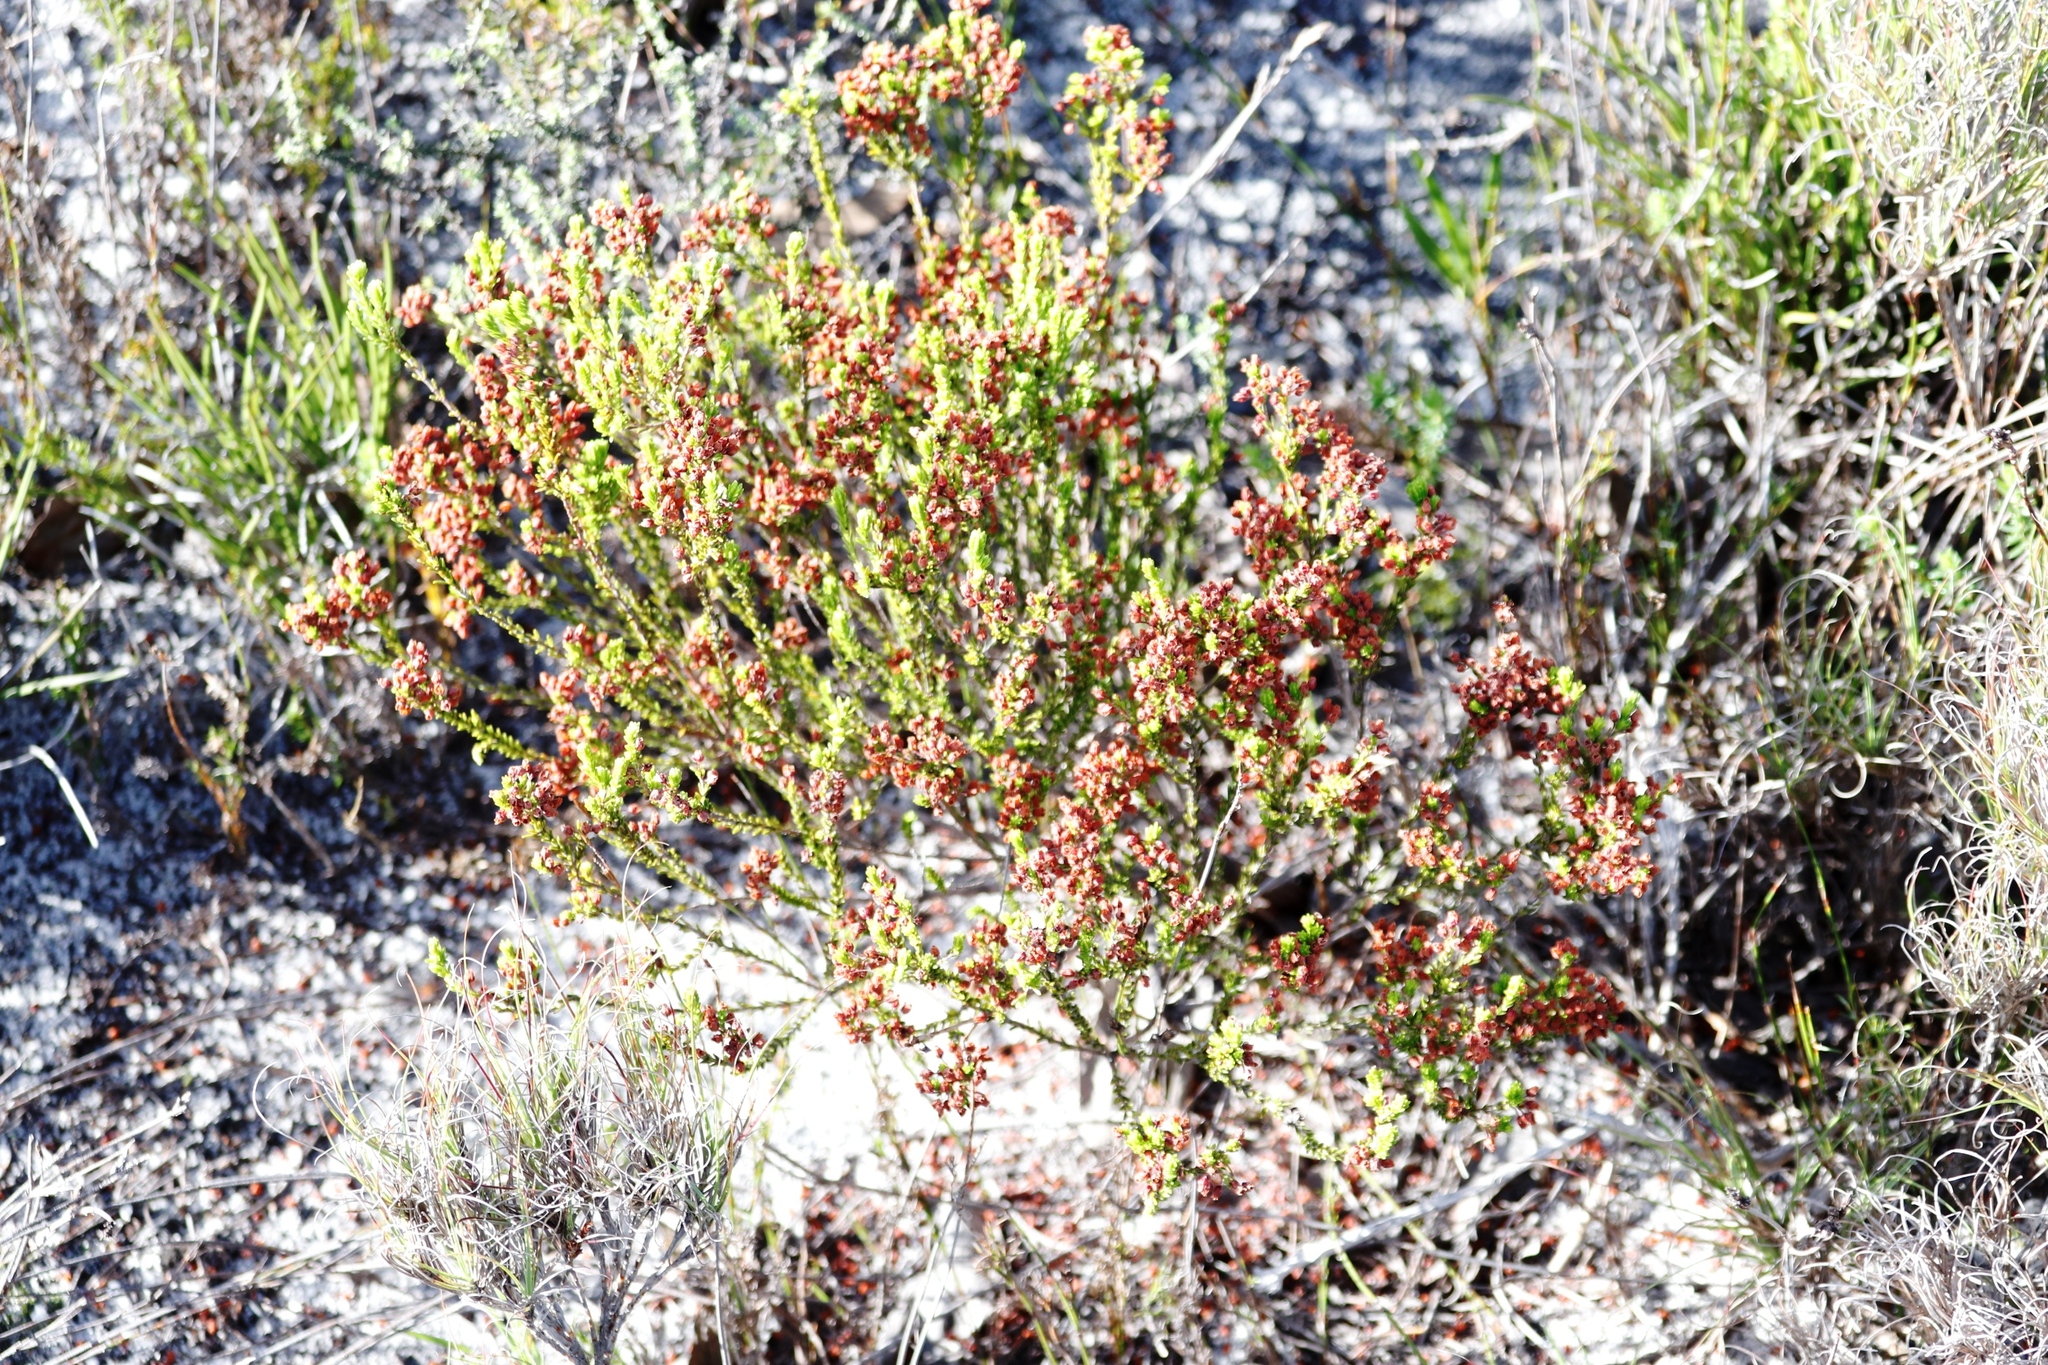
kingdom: Plantae
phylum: Tracheophyta
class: Magnoliopsida
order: Ericales
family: Ericaceae
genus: Erica
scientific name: Erica pulchella
